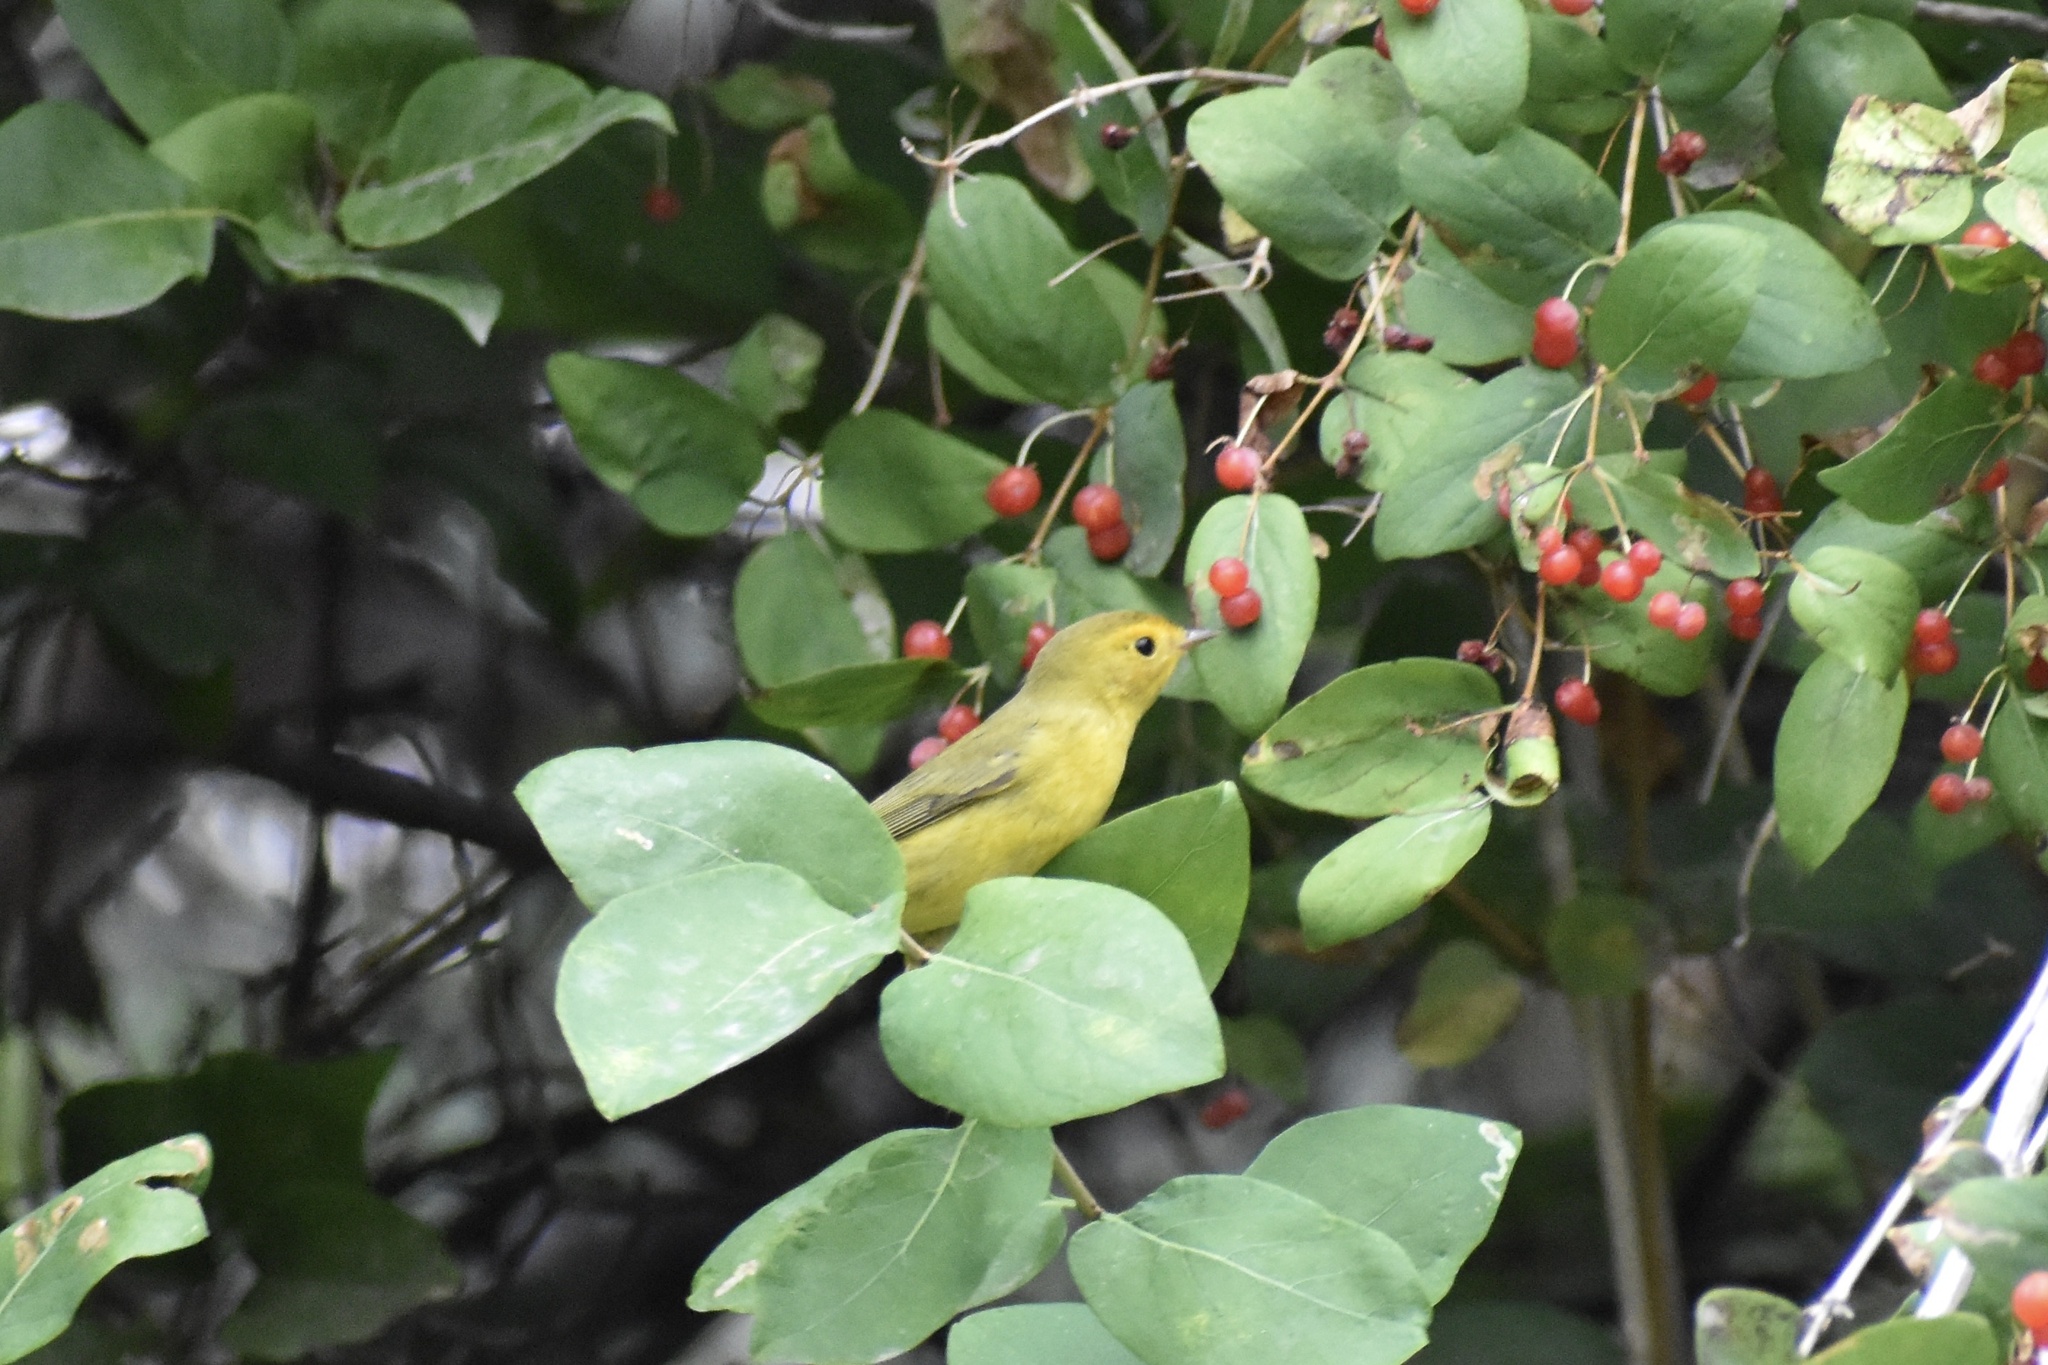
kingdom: Animalia
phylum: Chordata
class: Aves
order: Passeriformes
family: Parulidae
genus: Cardellina
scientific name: Cardellina pusilla
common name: Wilson's warbler
